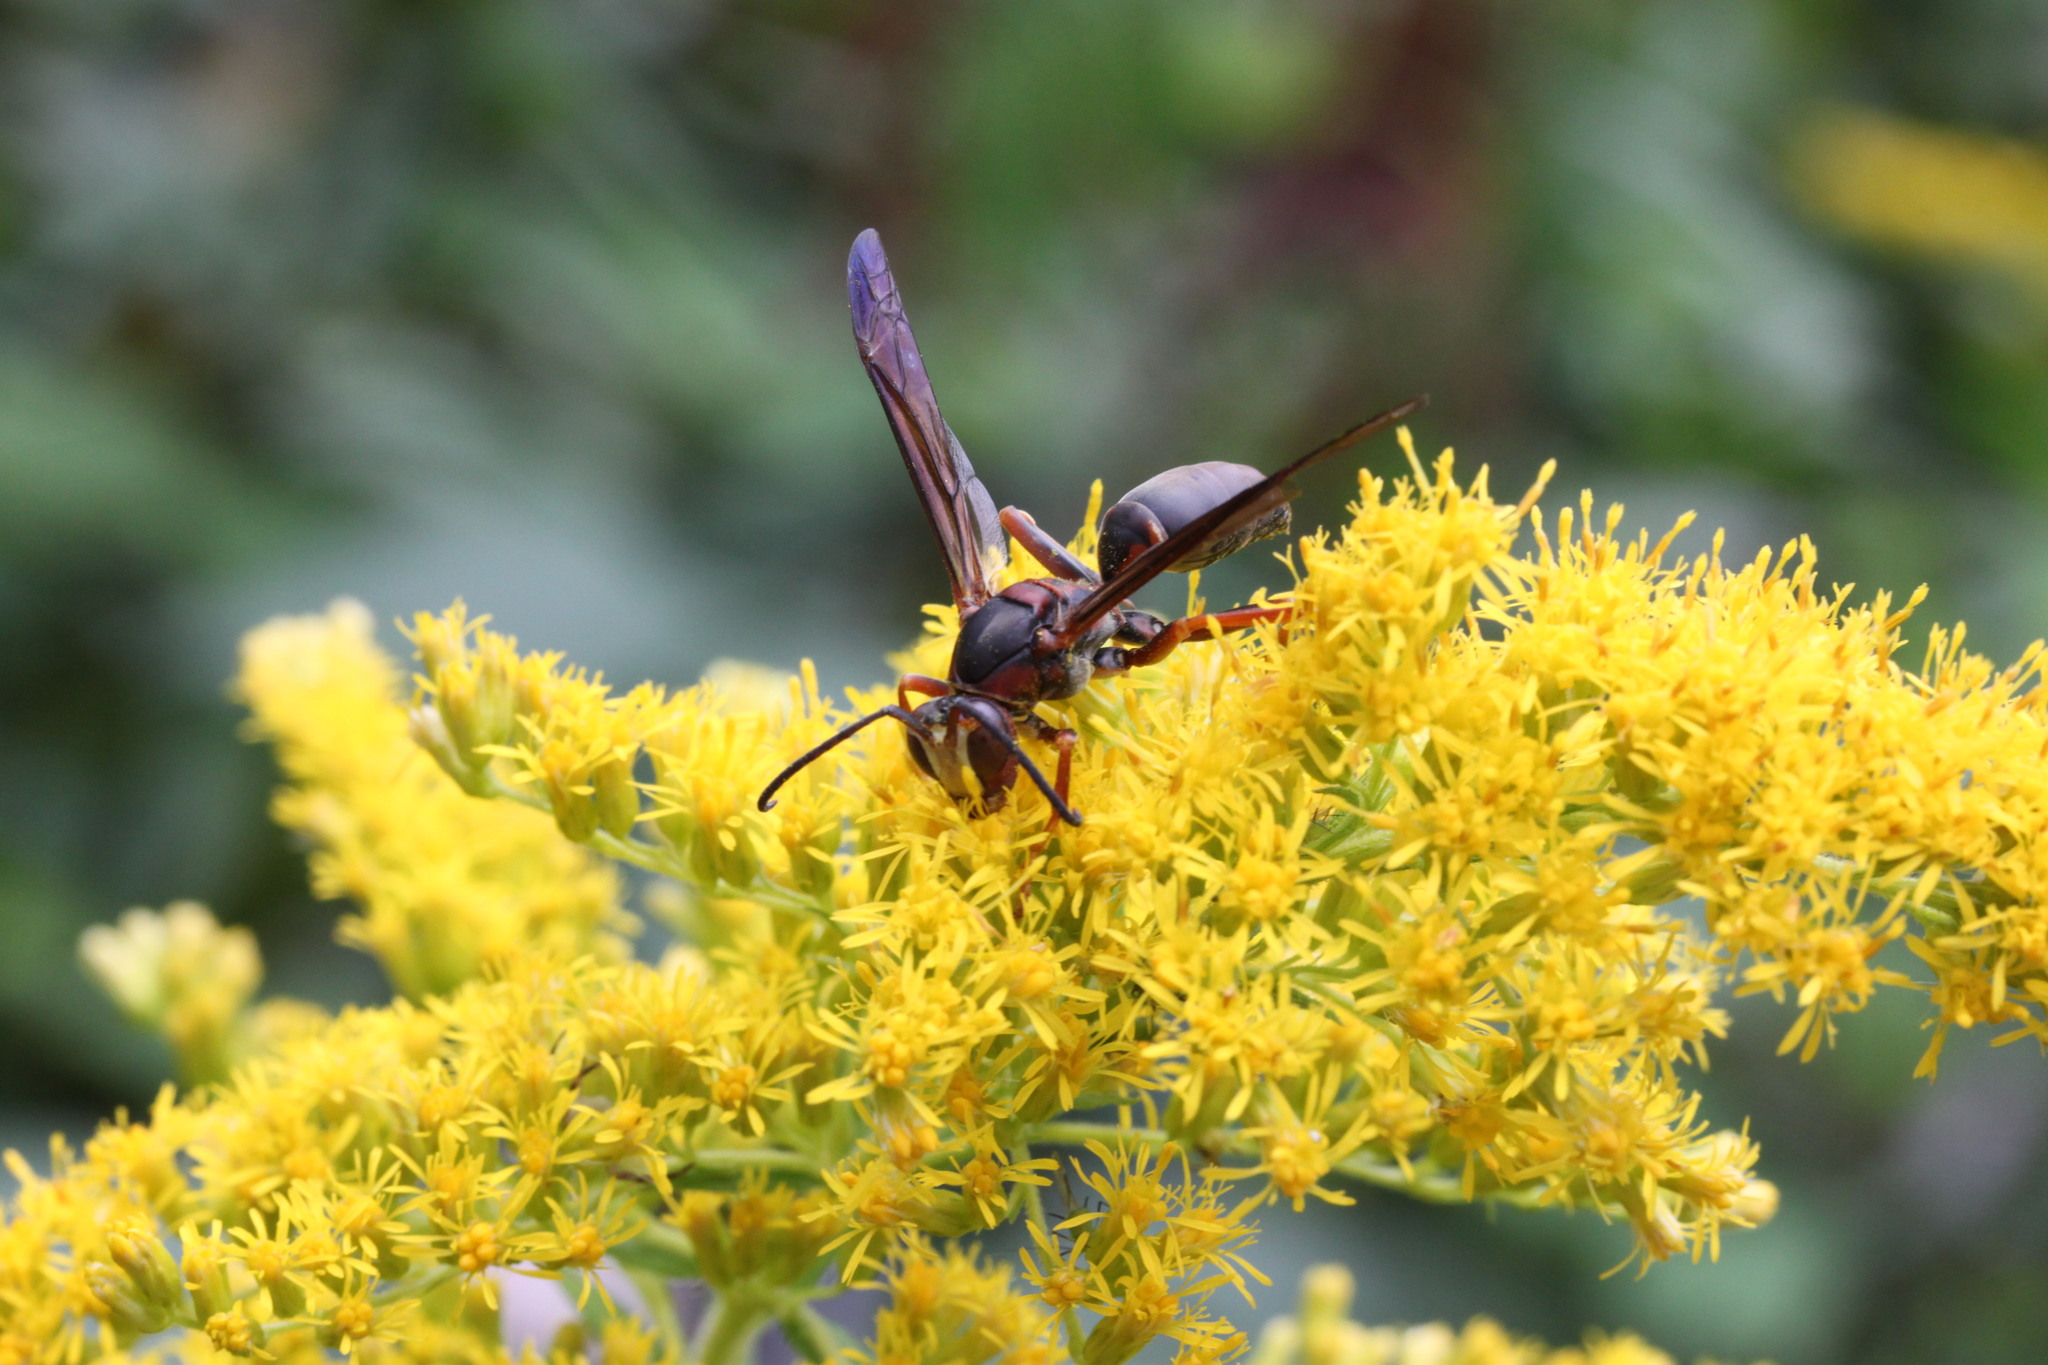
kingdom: Animalia
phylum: Arthropoda
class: Insecta
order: Hymenoptera
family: Eumenidae
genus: Polistes
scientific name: Polistes parametricus
